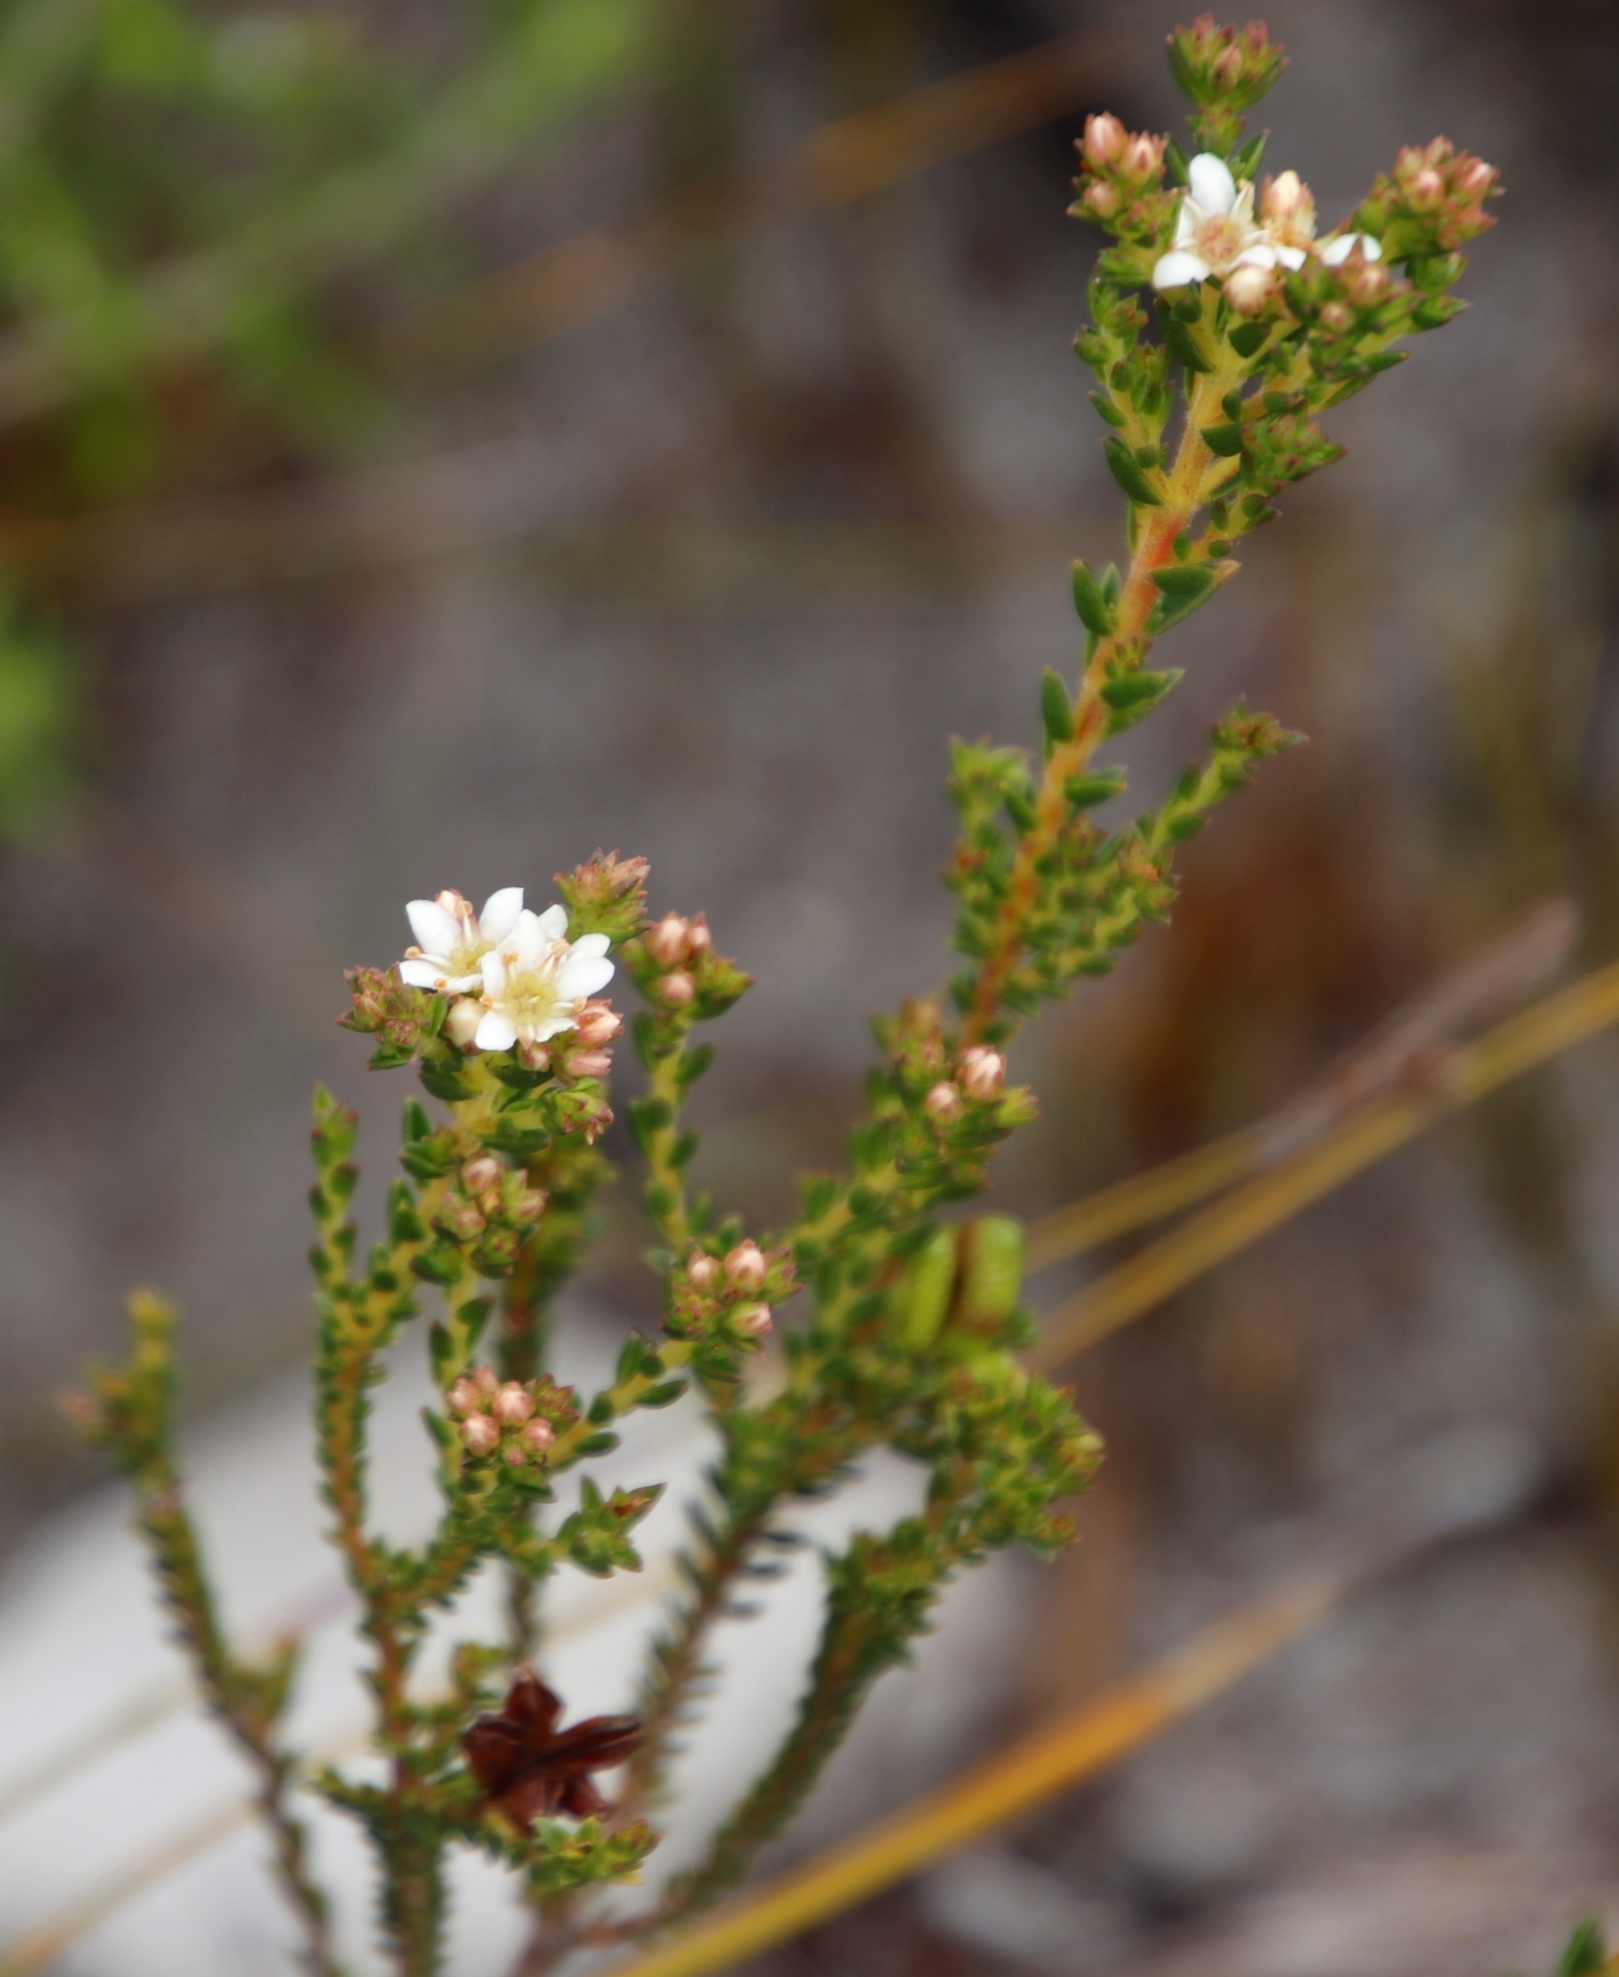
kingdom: Plantae
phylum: Tracheophyta
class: Magnoliopsida
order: Sapindales
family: Rutaceae
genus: Diosma
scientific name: Diosma oppositifolia
